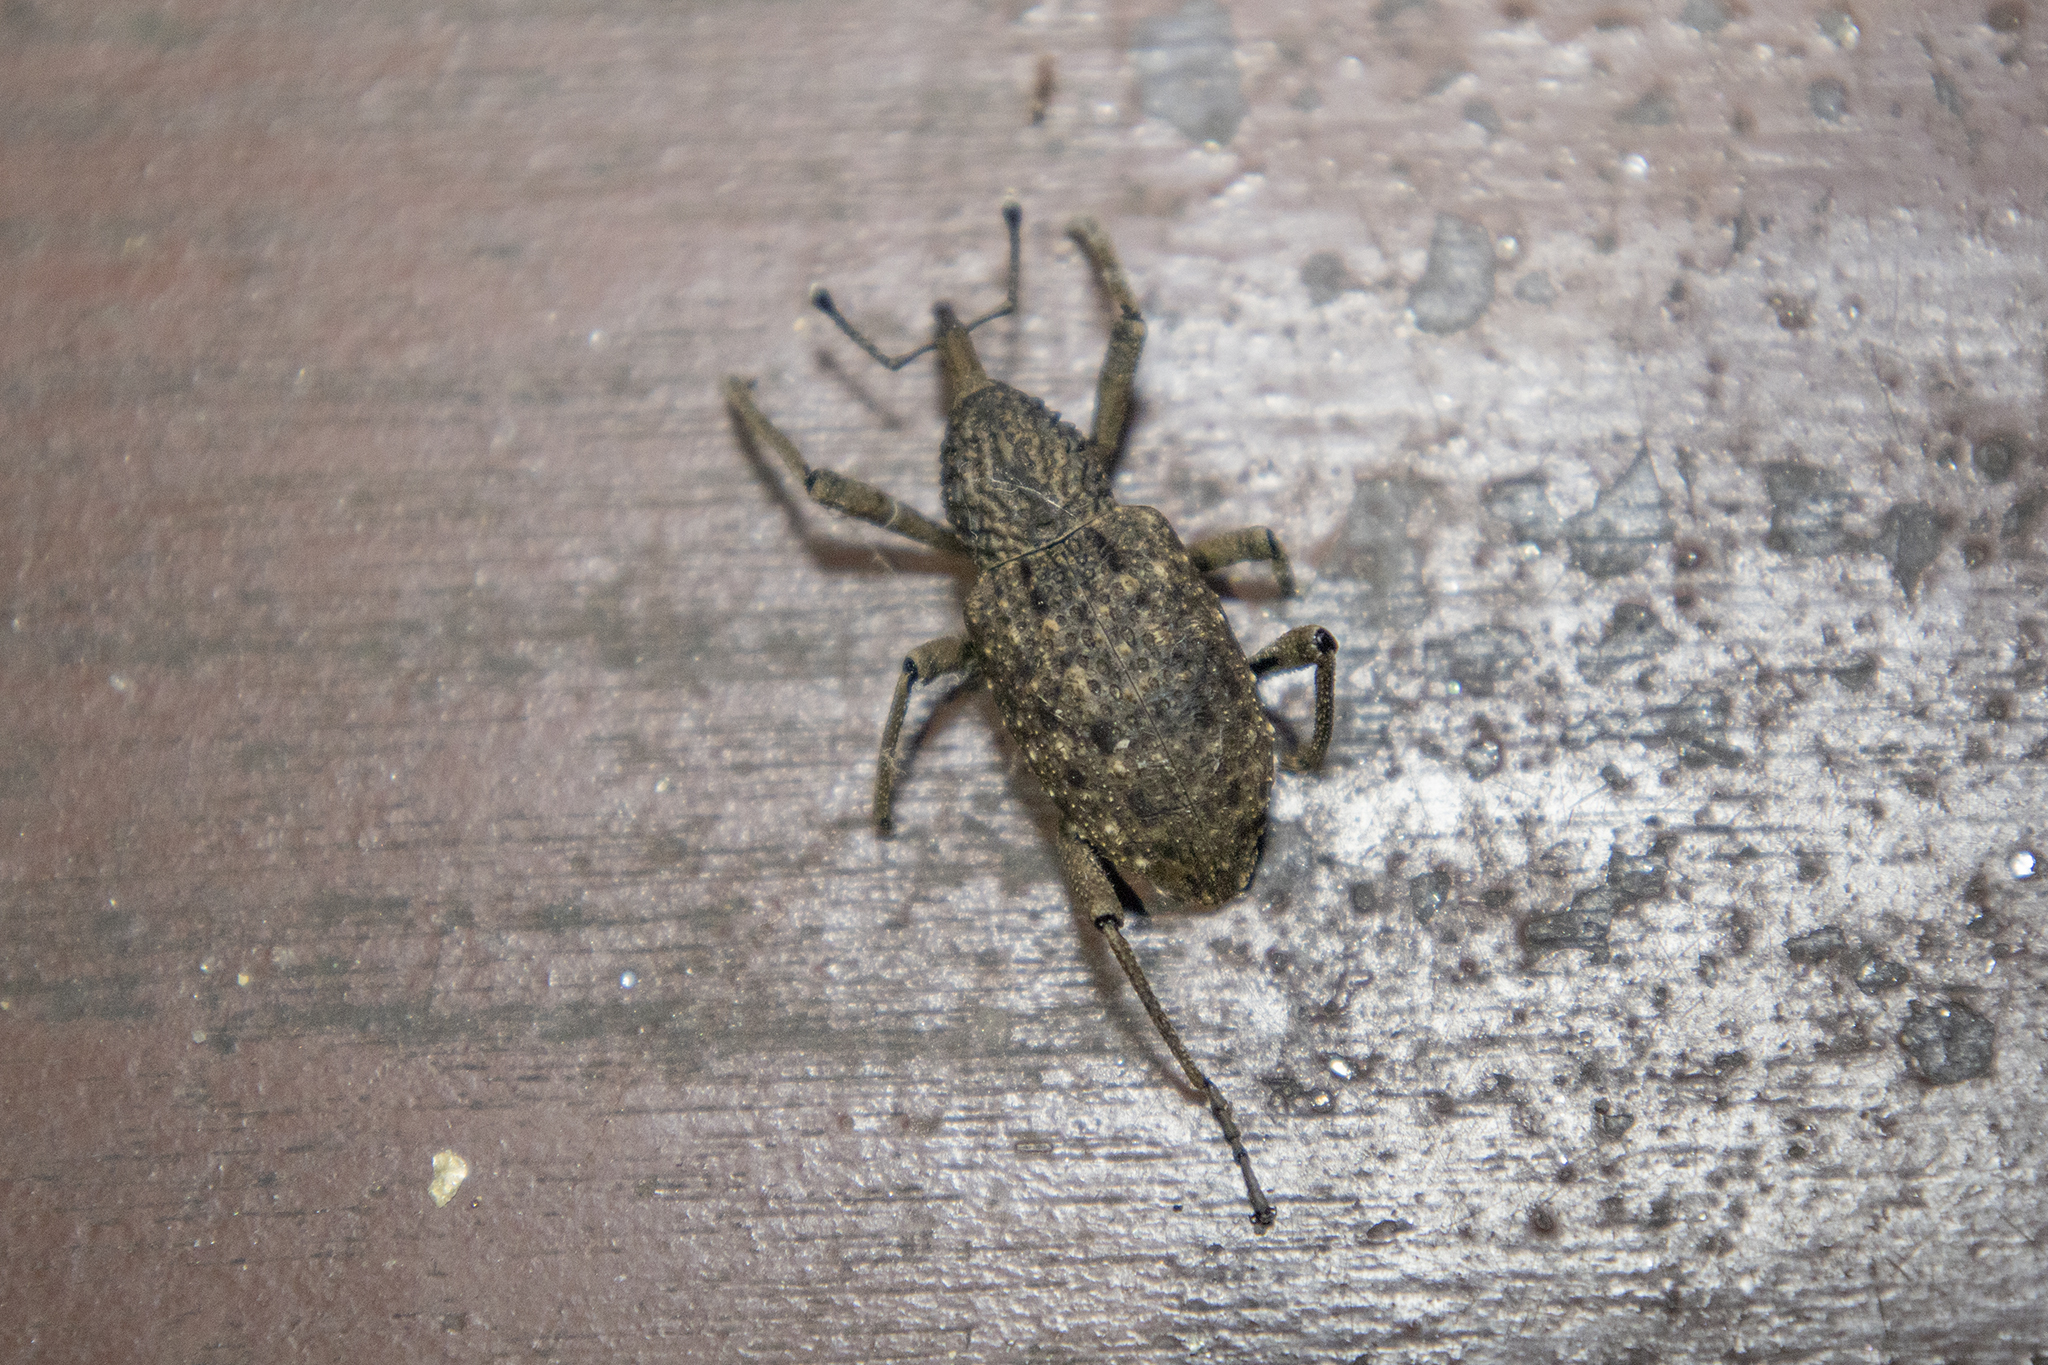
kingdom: Animalia
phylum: Arthropoda
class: Insecta
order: Coleoptera
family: Dryophthoridae
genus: Sipalinus
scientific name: Sipalinus gigas
